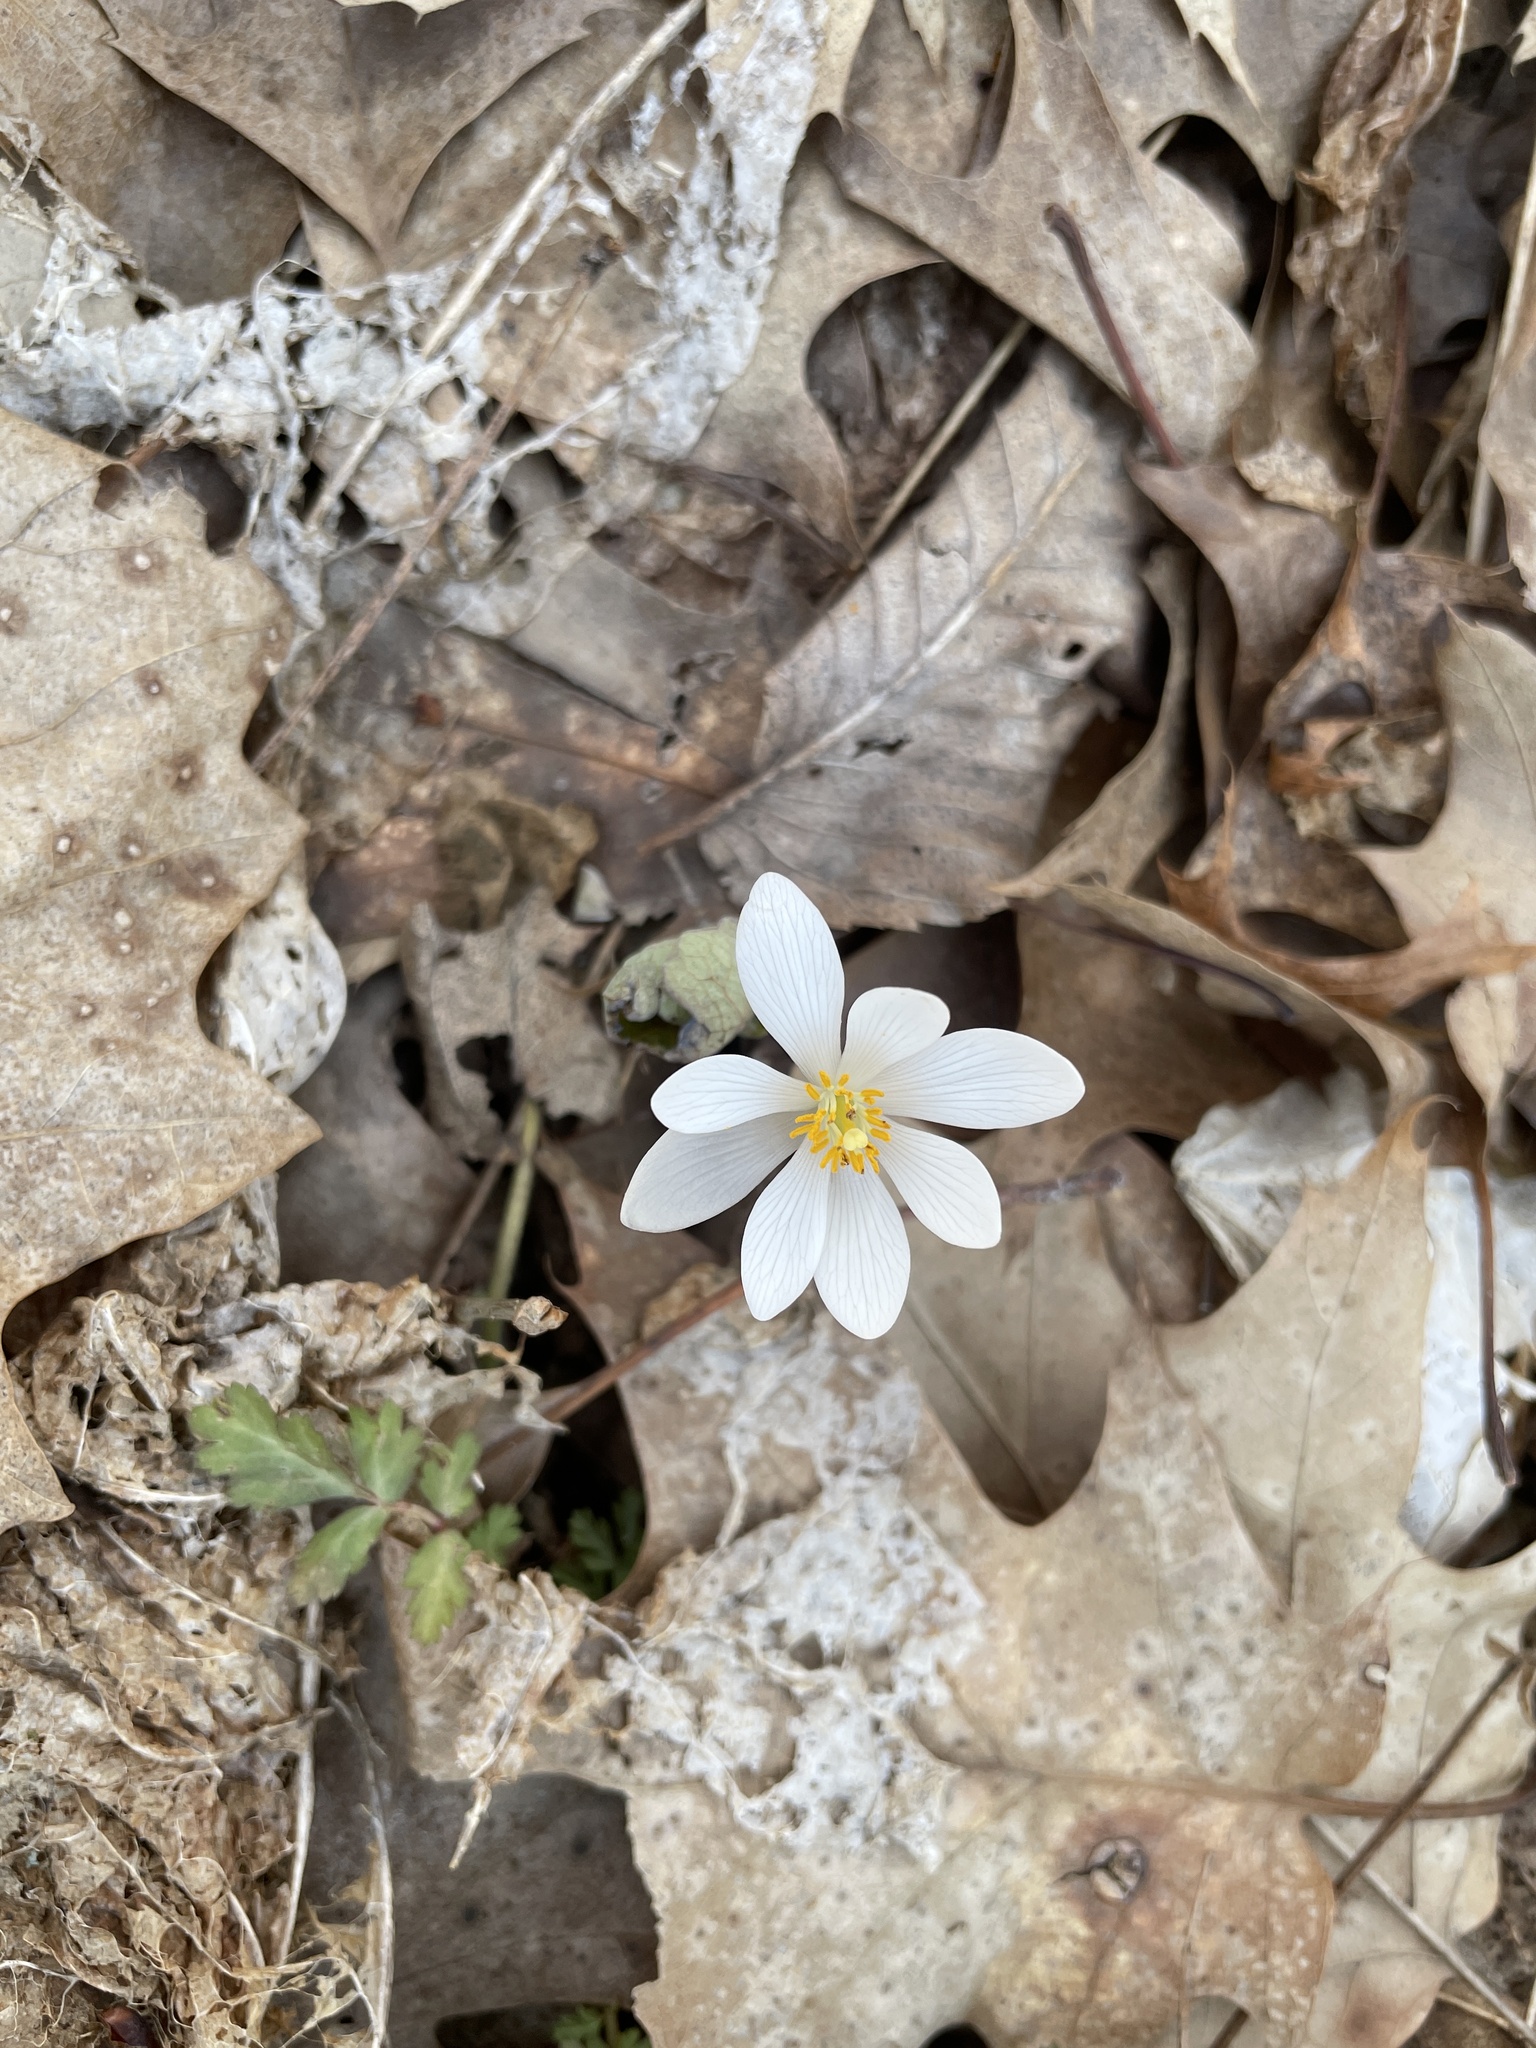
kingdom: Plantae
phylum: Tracheophyta
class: Magnoliopsida
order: Ranunculales
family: Papaveraceae
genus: Sanguinaria
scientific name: Sanguinaria canadensis
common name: Bloodroot
